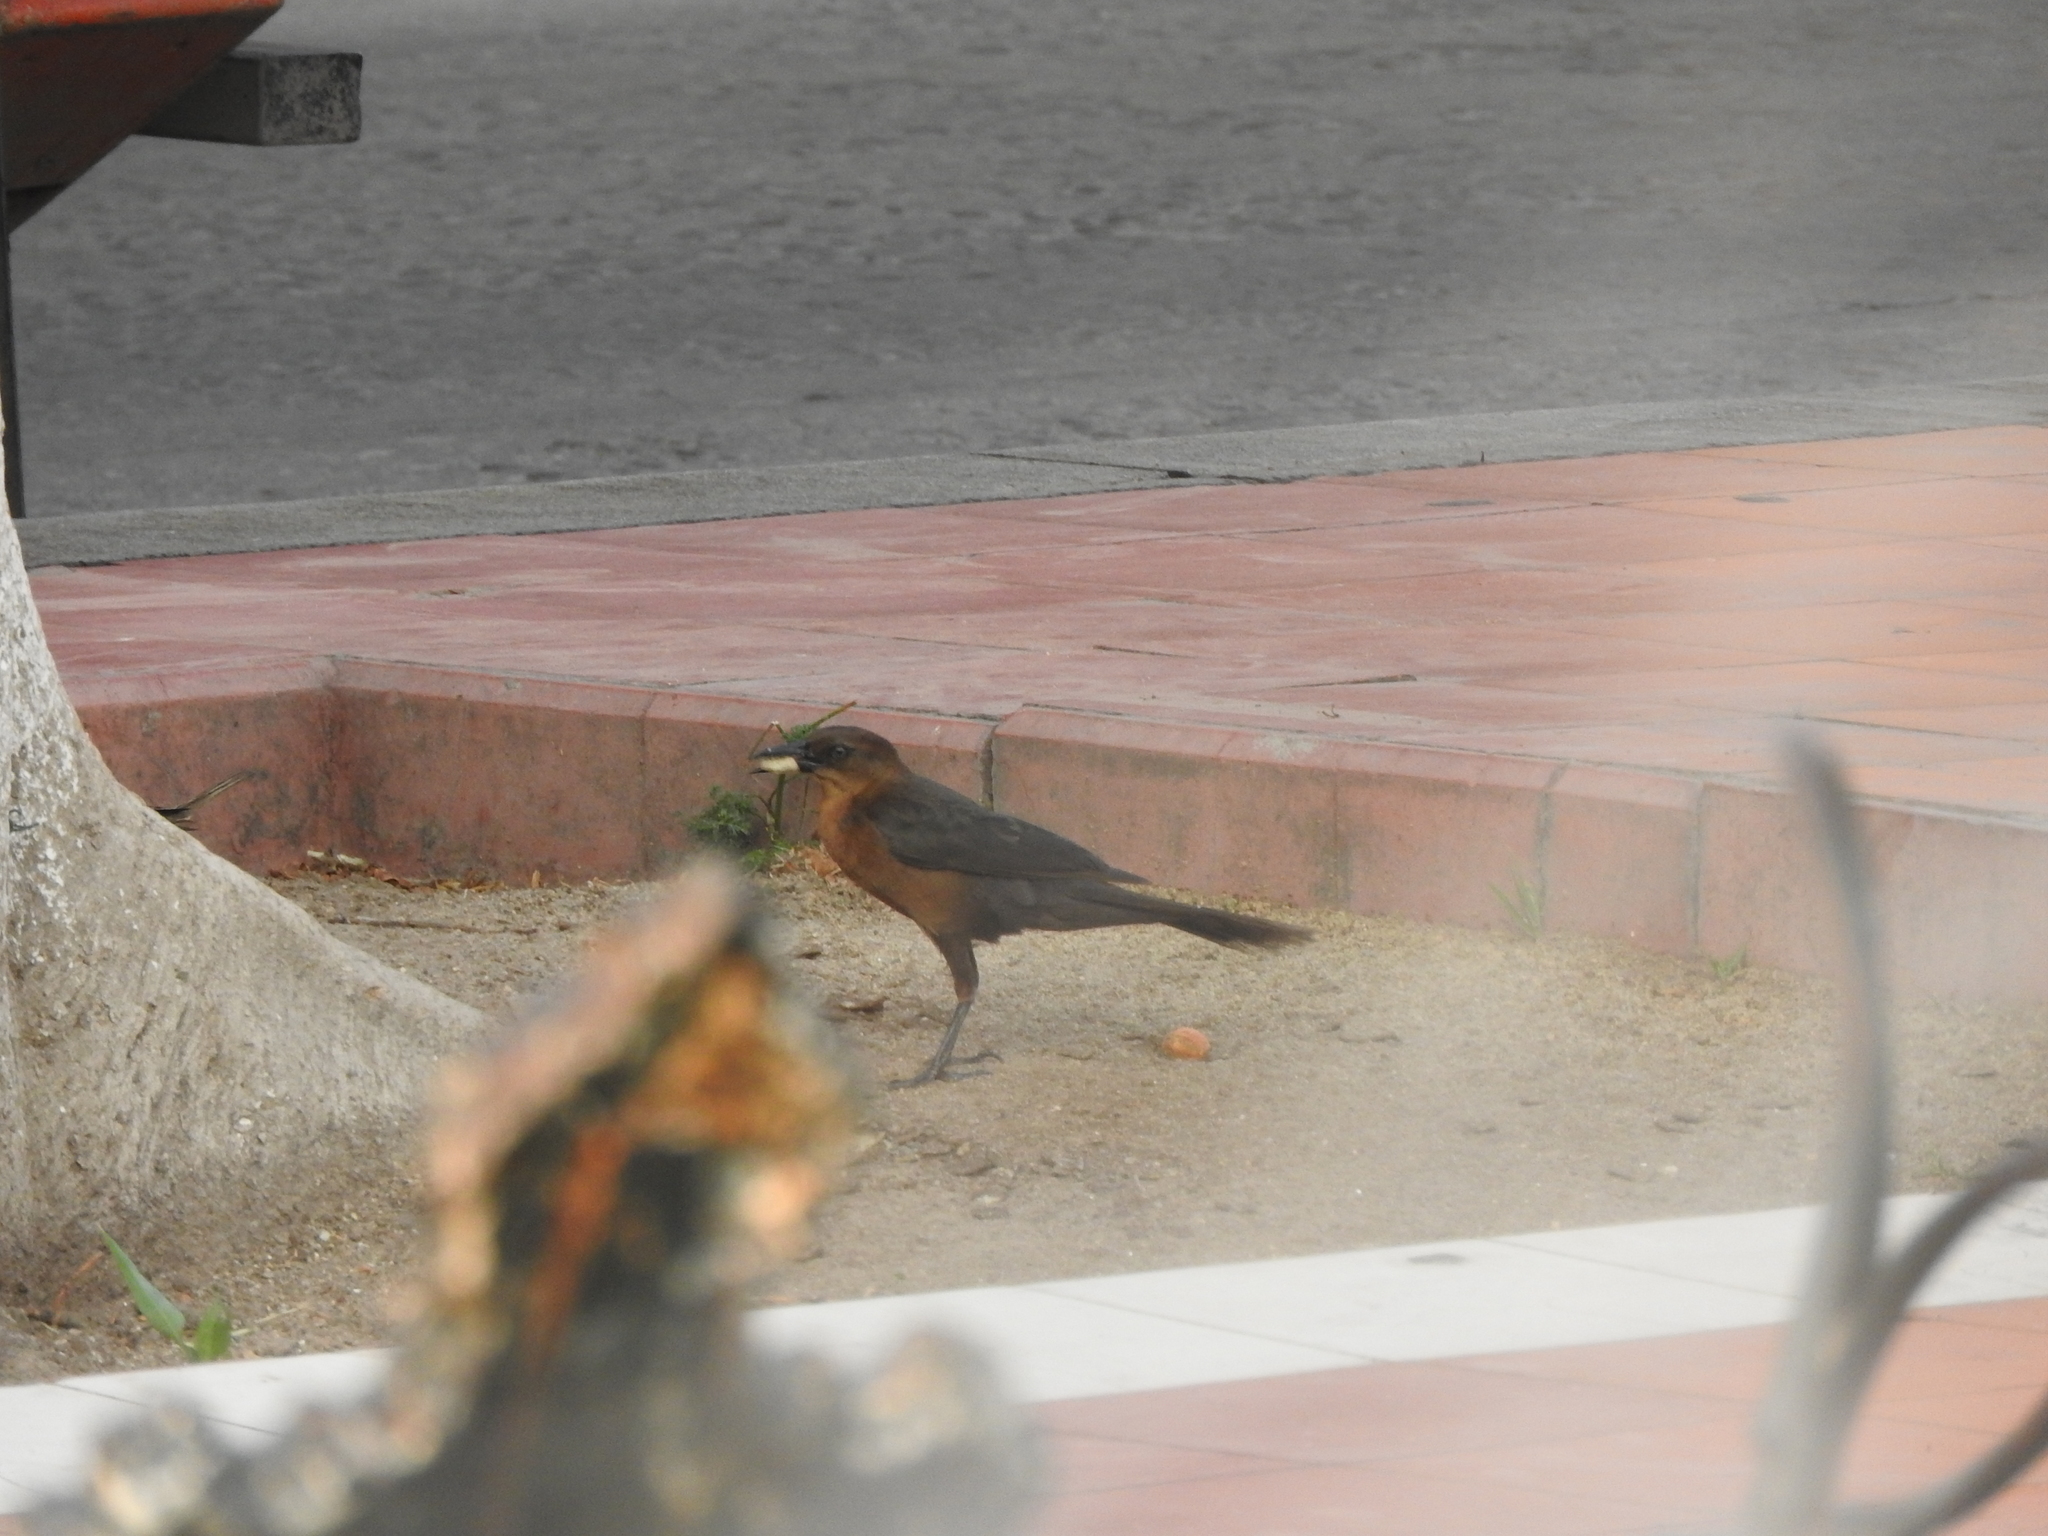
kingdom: Animalia
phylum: Chordata
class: Aves
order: Passeriformes
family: Icteridae
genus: Quiscalus
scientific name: Quiscalus mexicanus
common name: Great-tailed grackle
